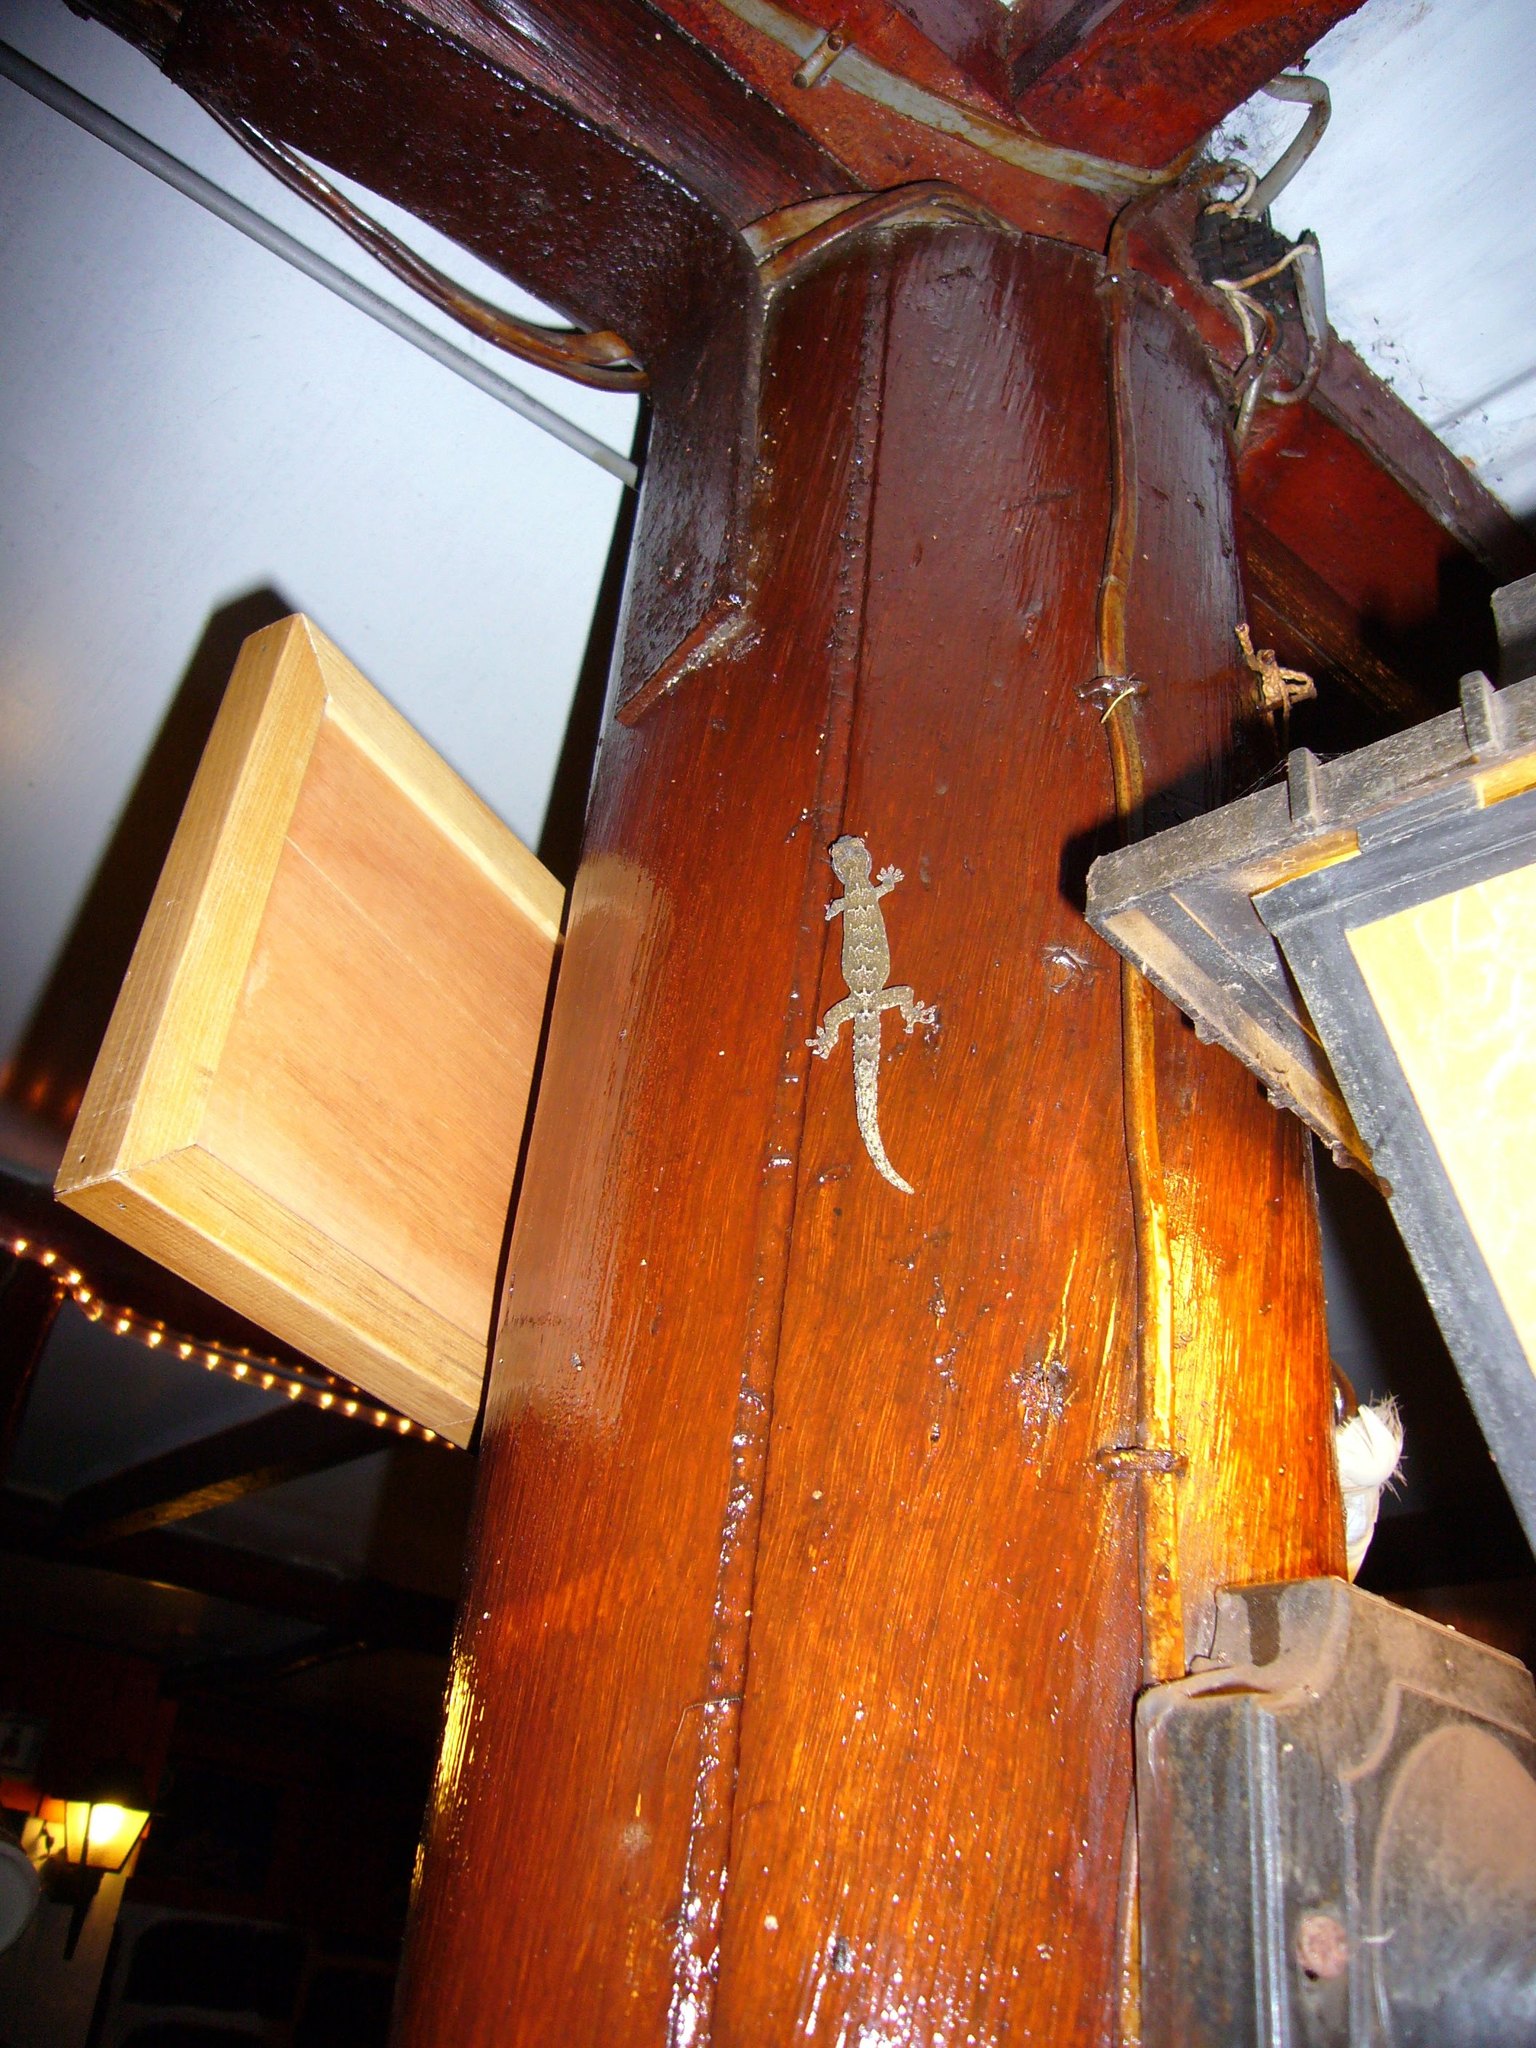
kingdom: Animalia
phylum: Chordata
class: Squamata
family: Gekkonidae
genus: Lepidodactylus
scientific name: Lepidodactylus lugubris
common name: Mourning gecko
